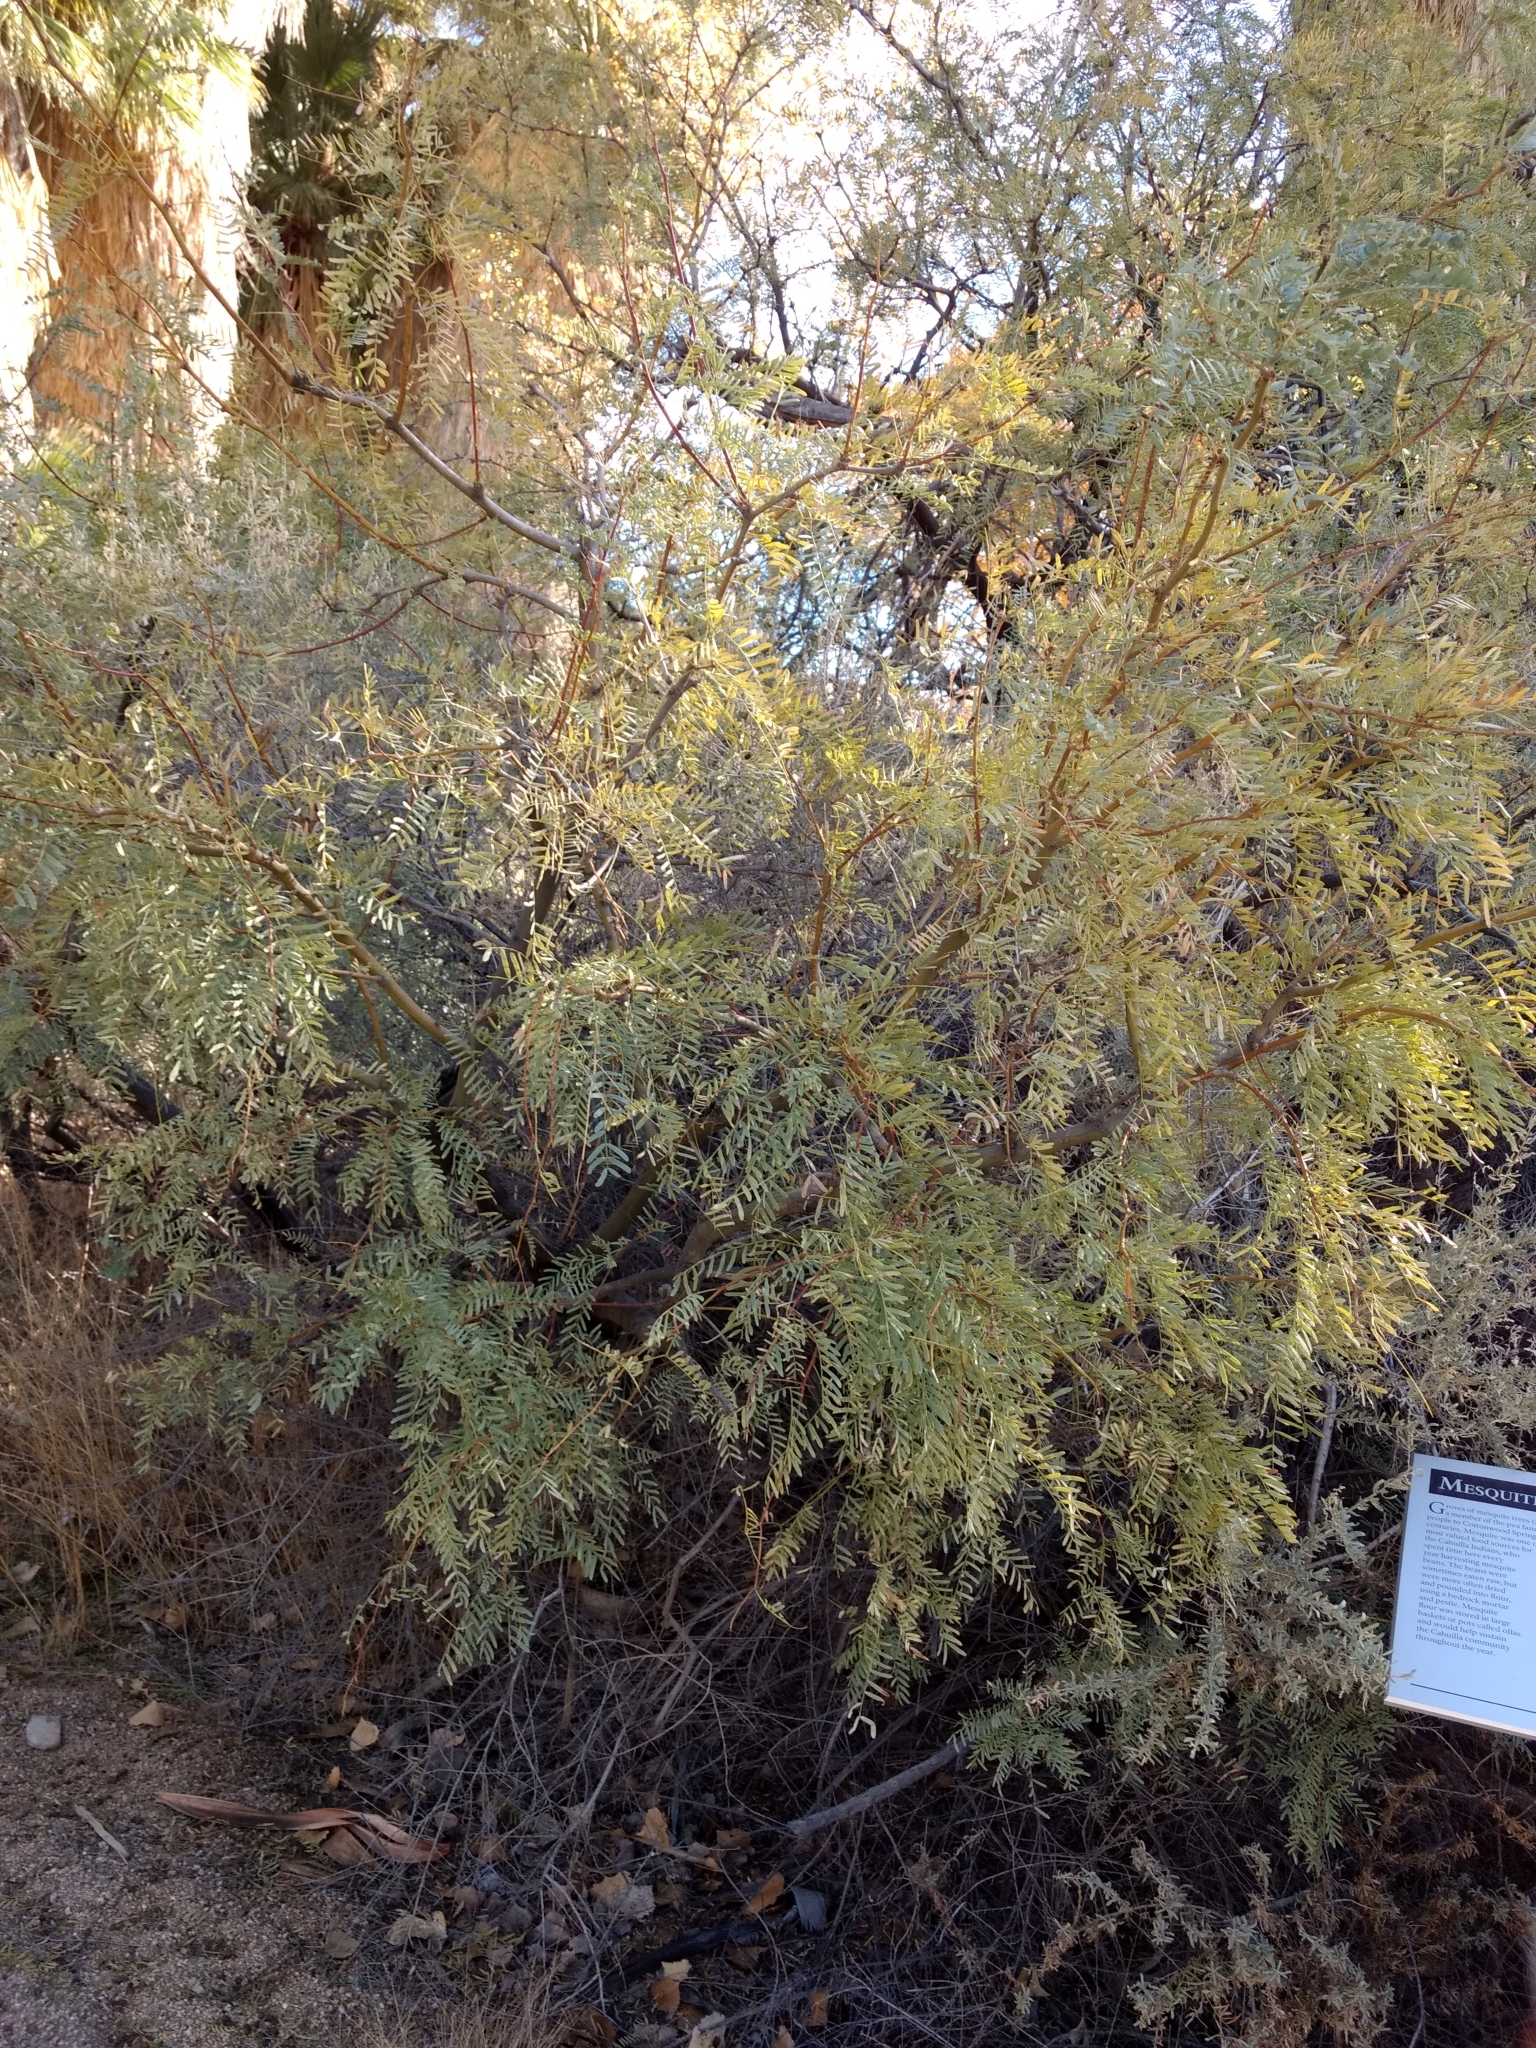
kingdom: Plantae
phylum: Tracheophyta
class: Magnoliopsida
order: Fabales
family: Fabaceae
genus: Prosopis
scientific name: Prosopis pubescens
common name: Screw-bean
